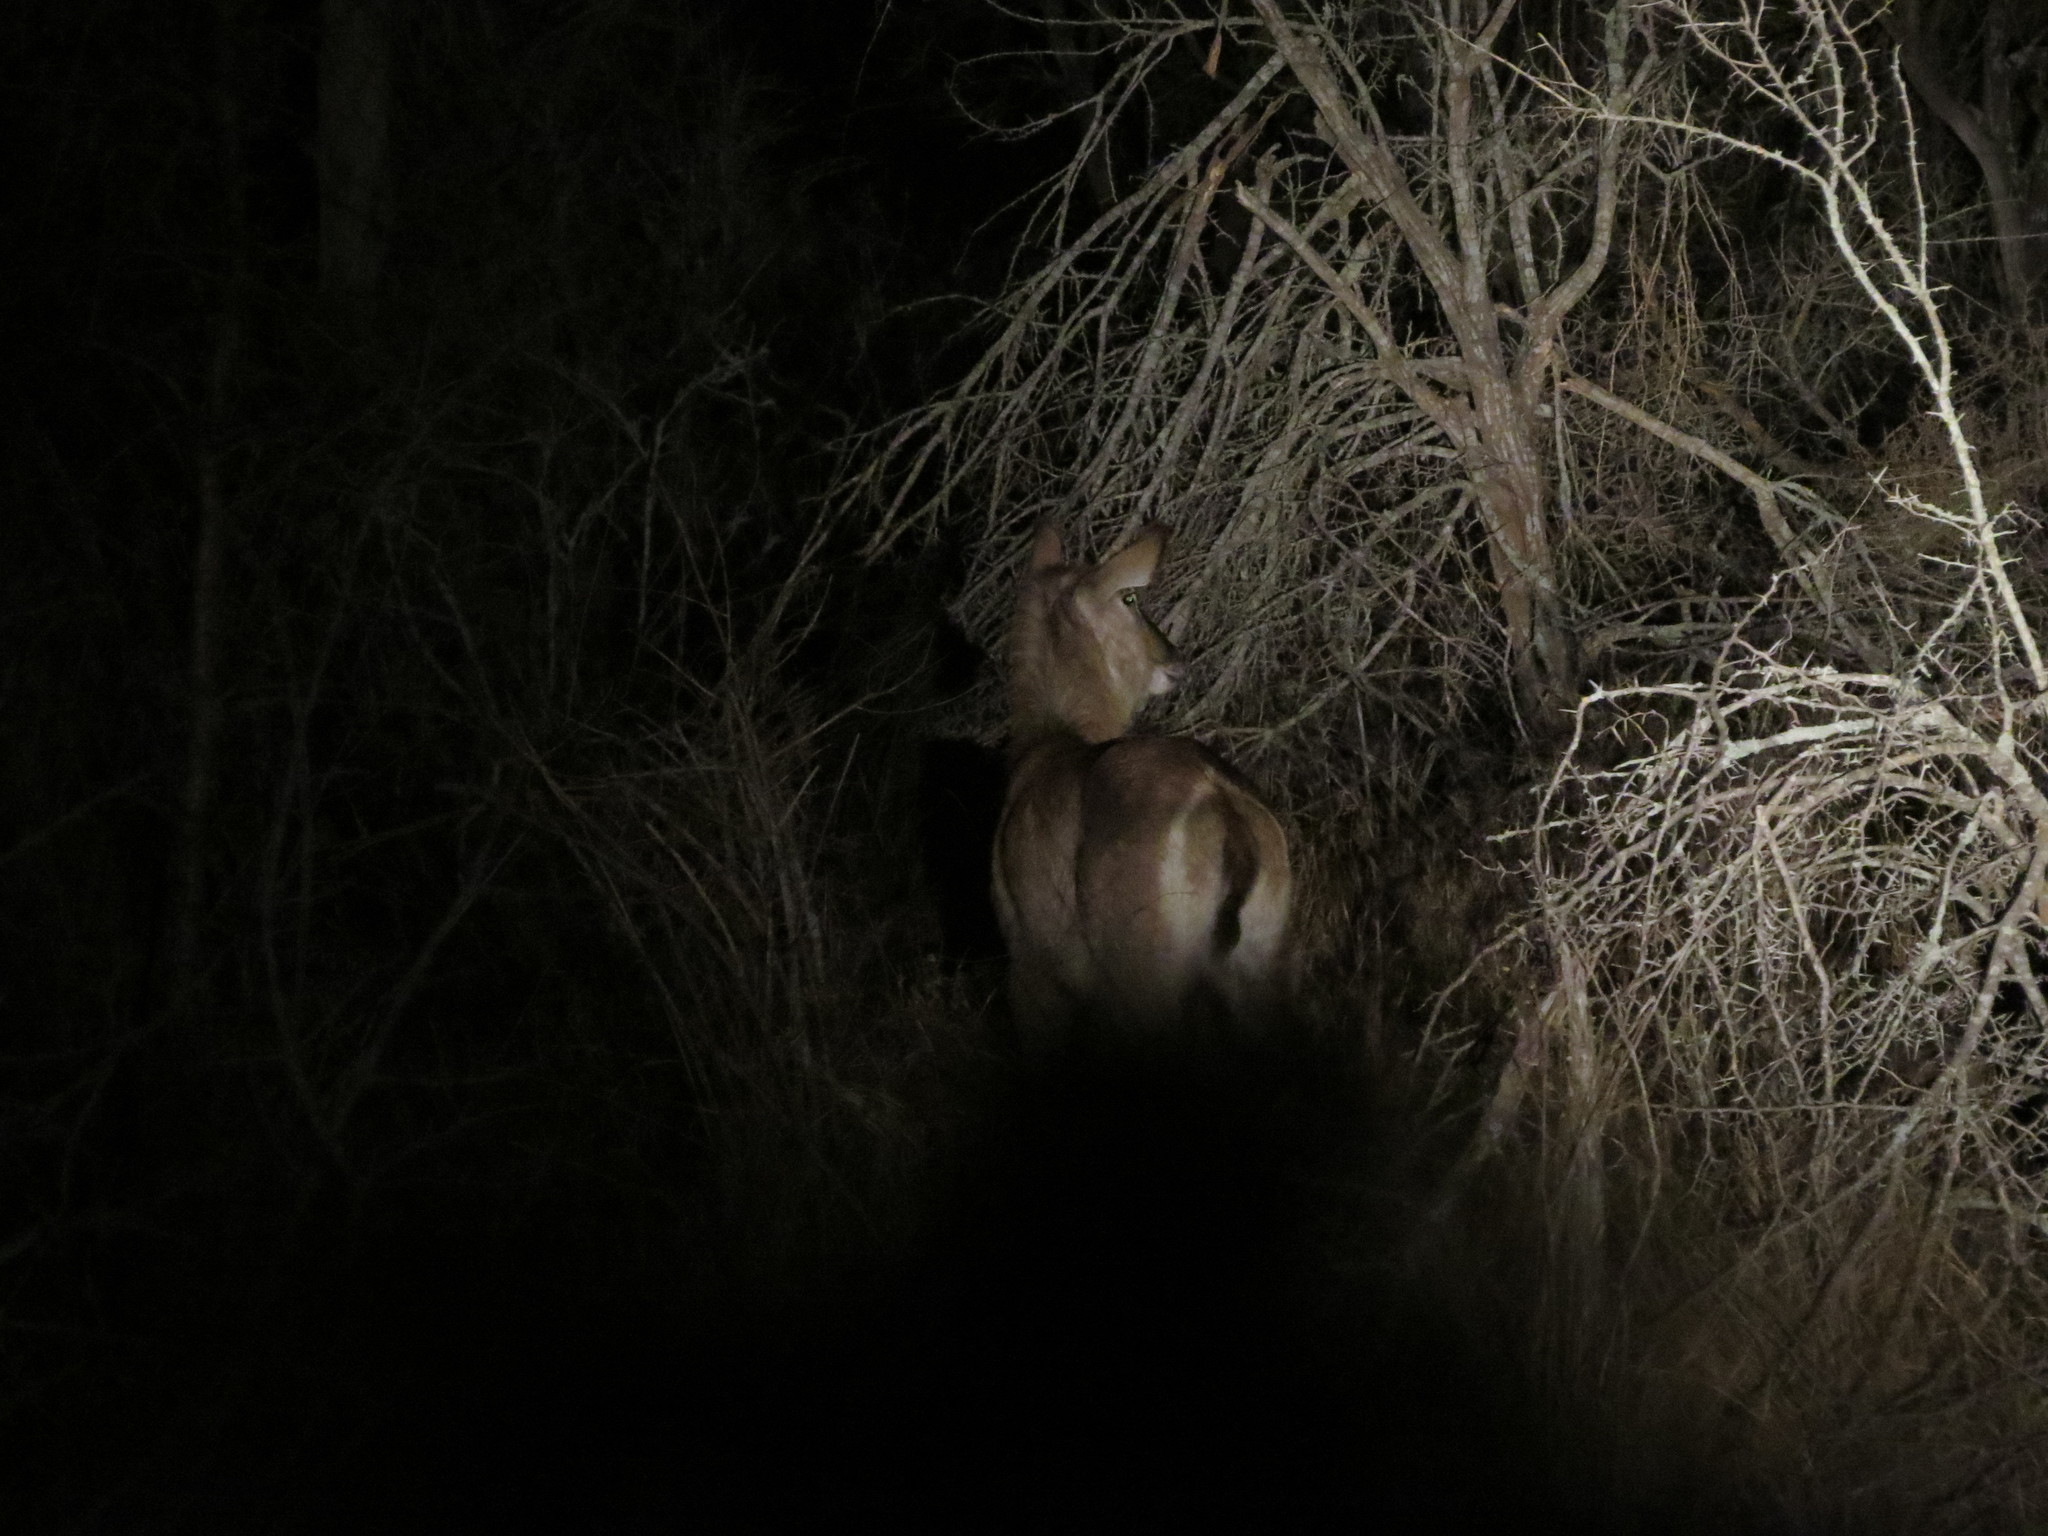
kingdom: Animalia
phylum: Chordata
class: Mammalia
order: Artiodactyla
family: Bovidae
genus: Kobus
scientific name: Kobus ellipsiprymnus
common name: Waterbuck
